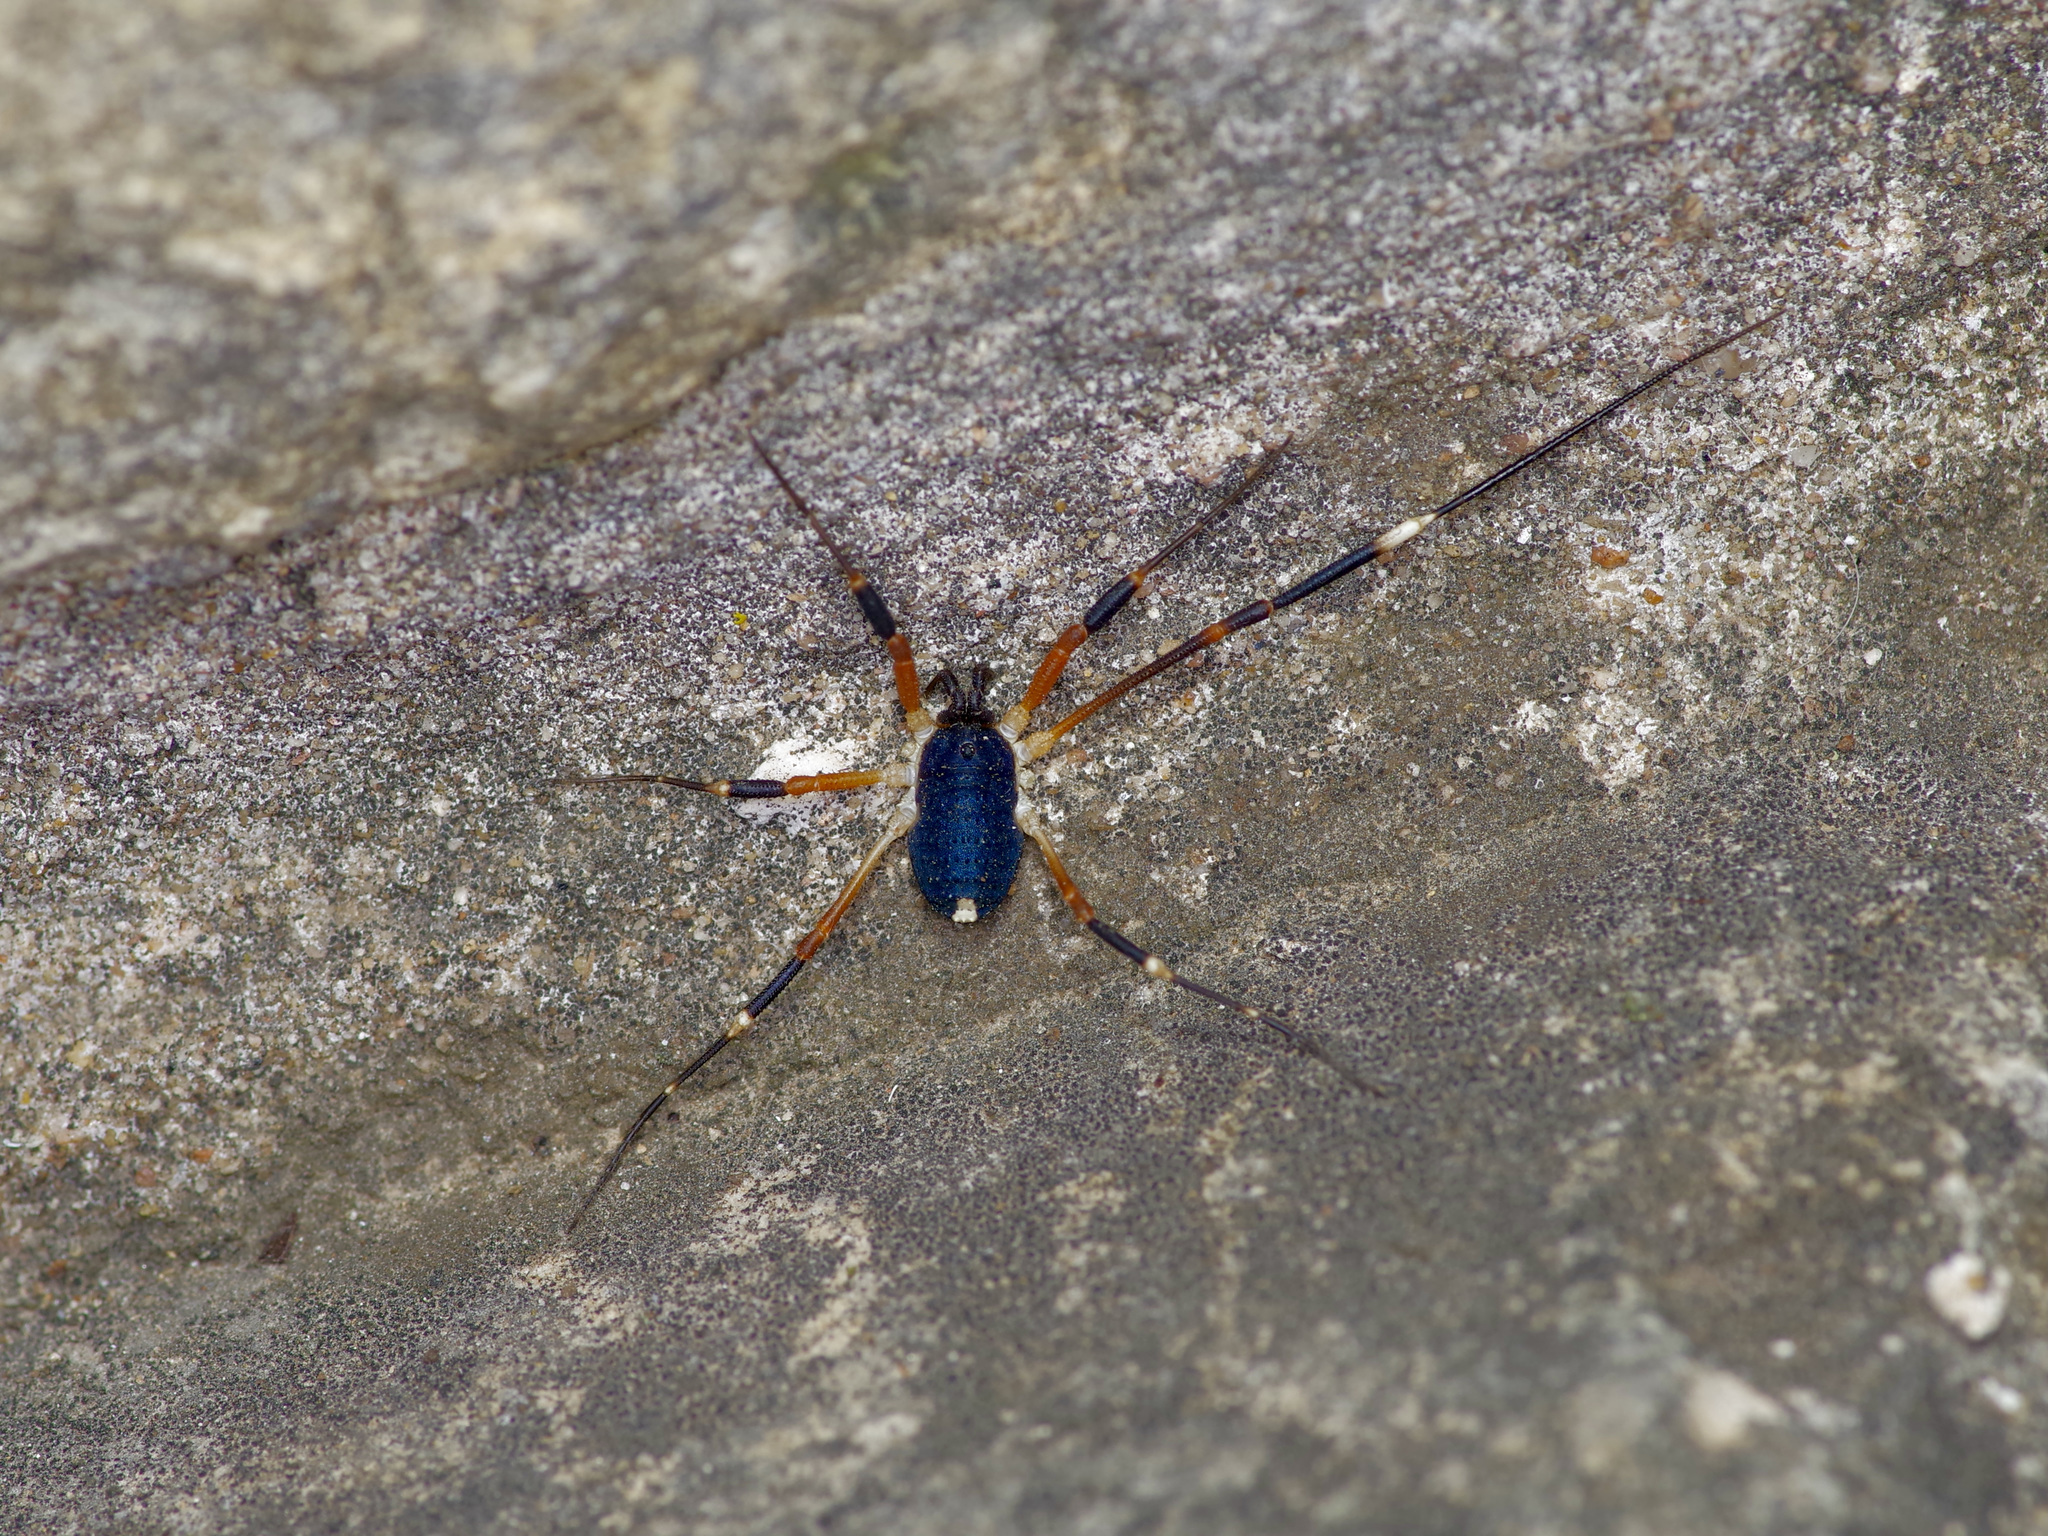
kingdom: Animalia
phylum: Arthropoda
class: Arachnida
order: Opiliones
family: Globipedidae
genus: Dalquestia
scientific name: Dalquestia formosa
